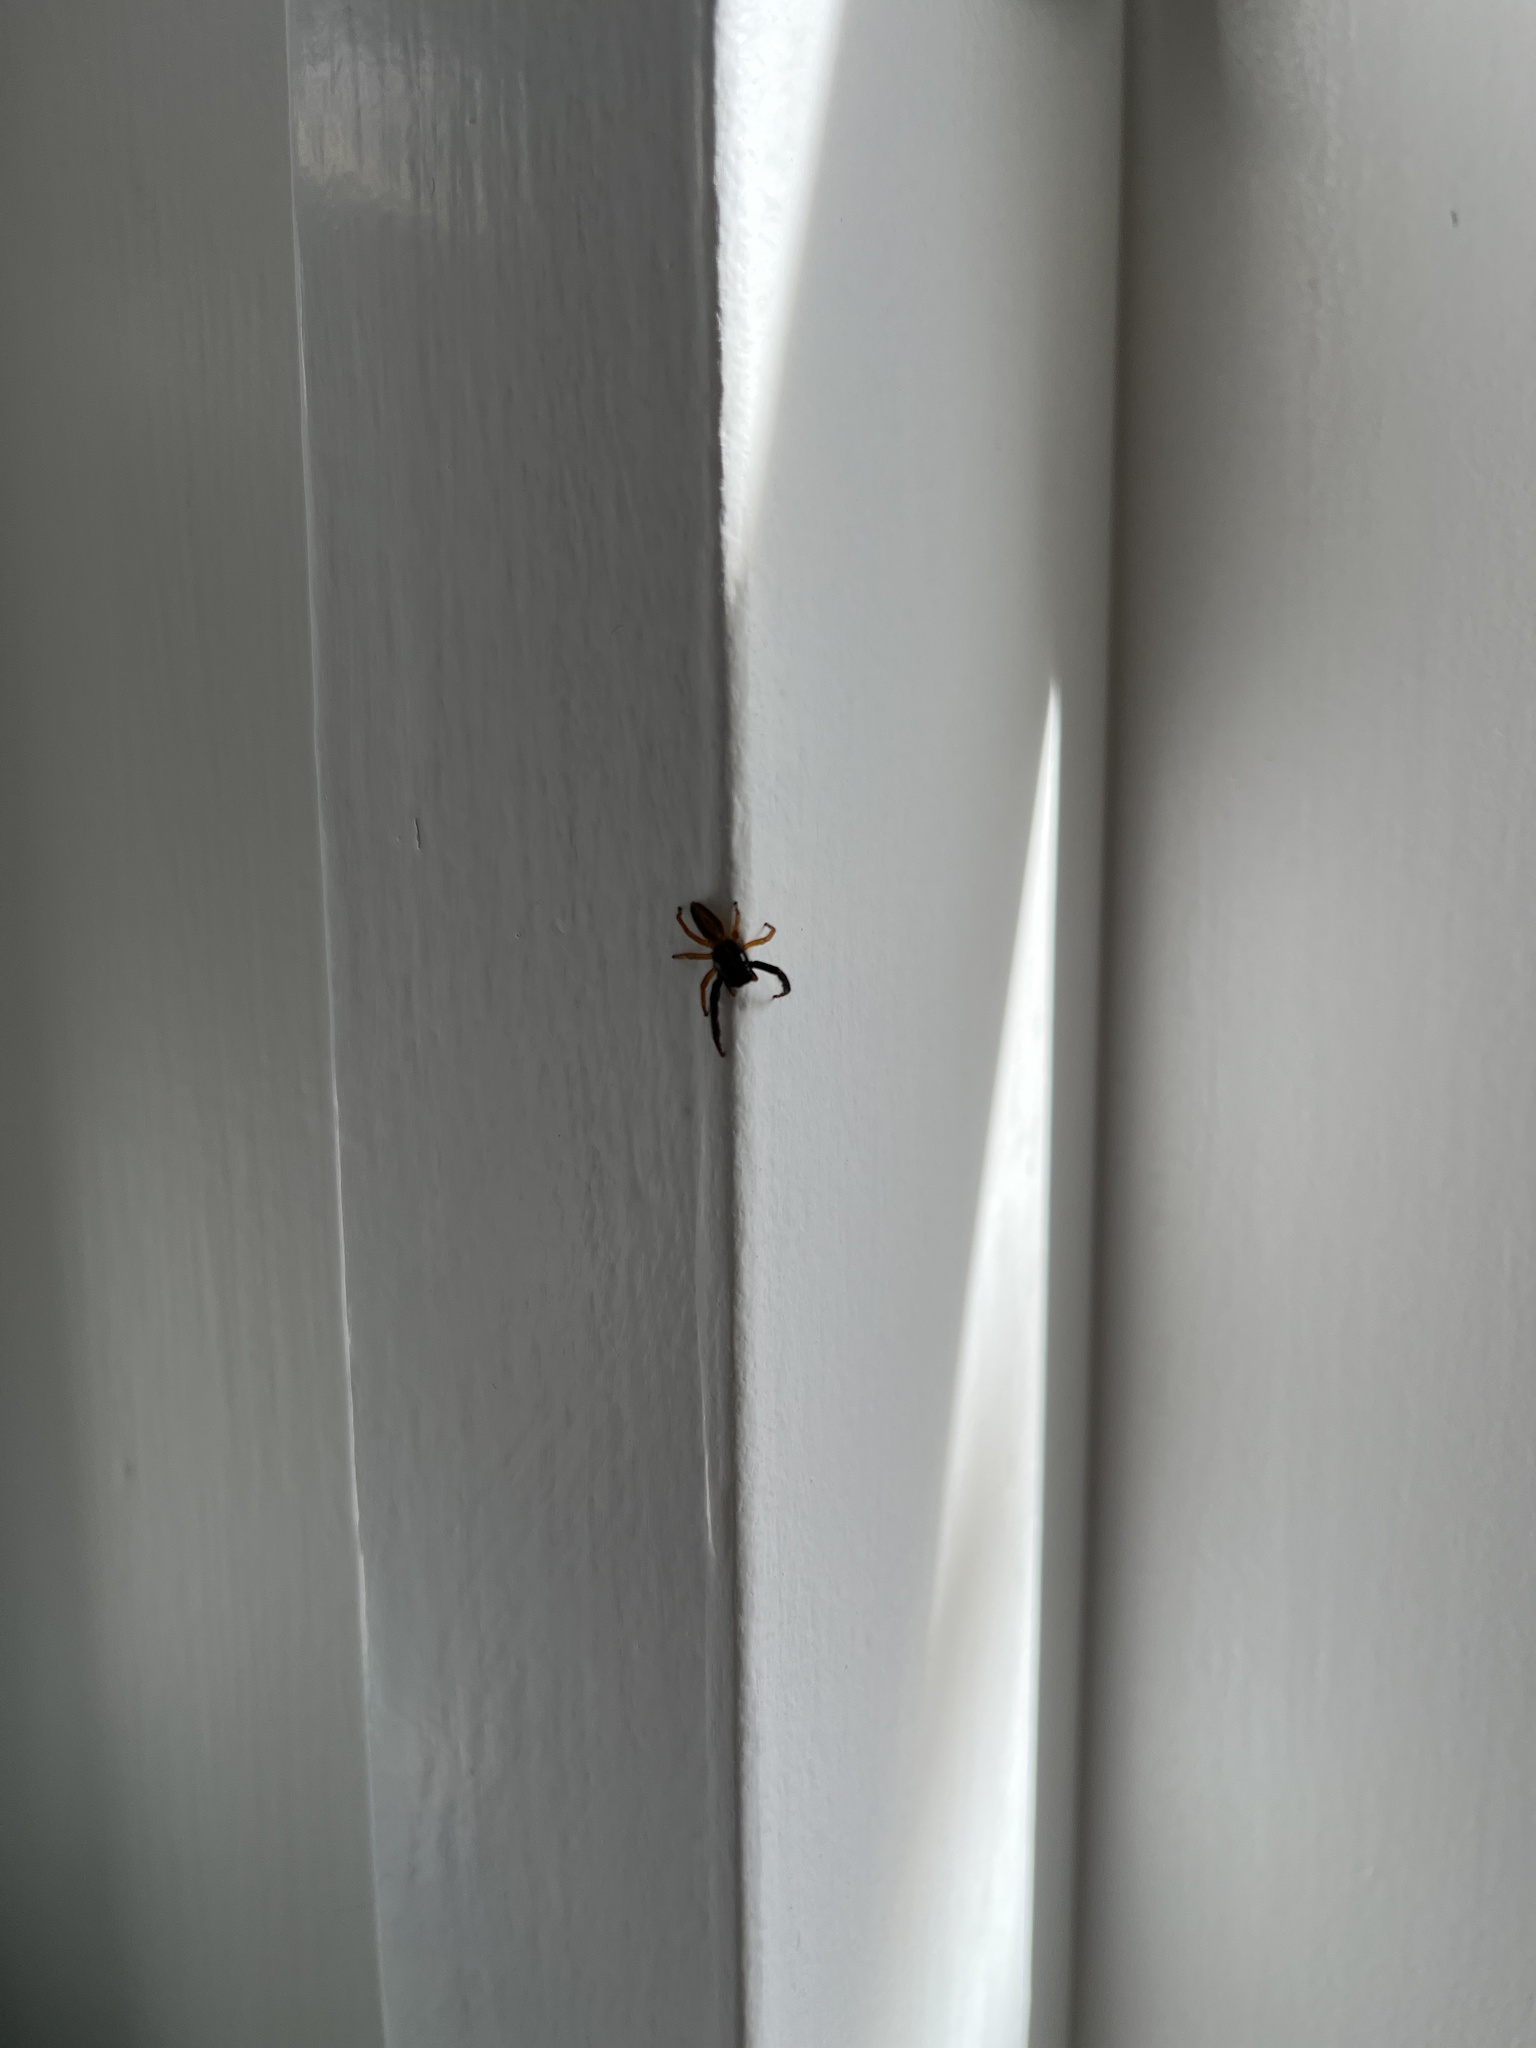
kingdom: Animalia
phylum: Arthropoda
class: Arachnida
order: Araneae
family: Salticidae
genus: Trite
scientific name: Trite planiceps
